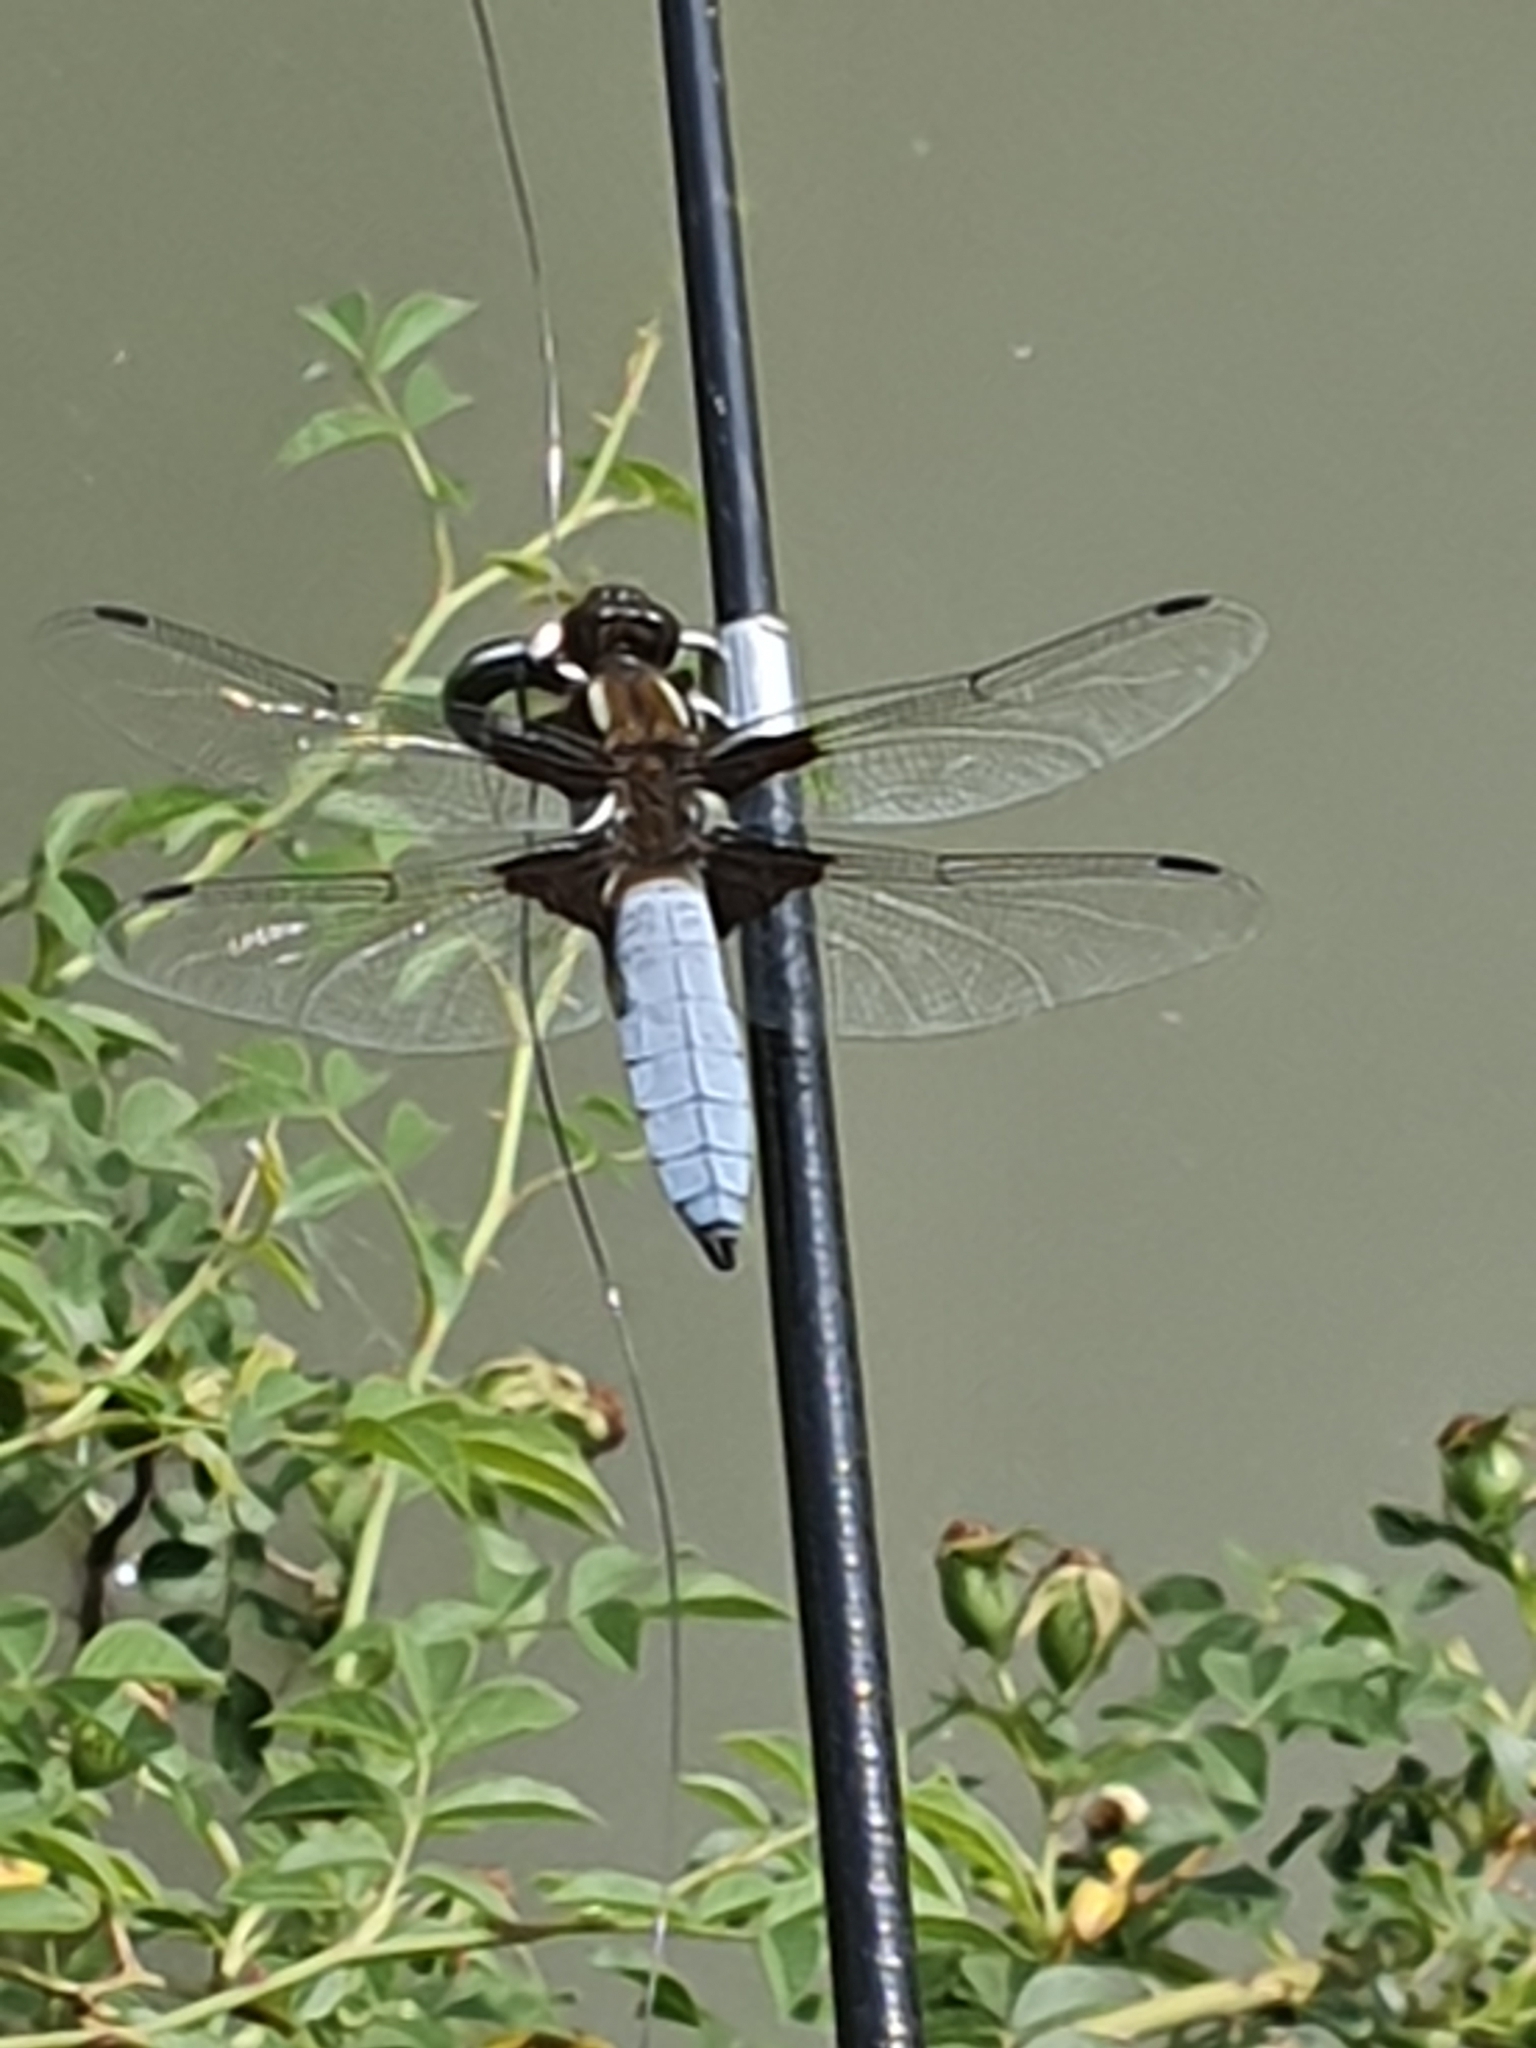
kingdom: Animalia
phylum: Arthropoda
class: Insecta
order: Odonata
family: Libellulidae
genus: Libellula
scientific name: Libellula depressa
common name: Broad-bodied chaser
